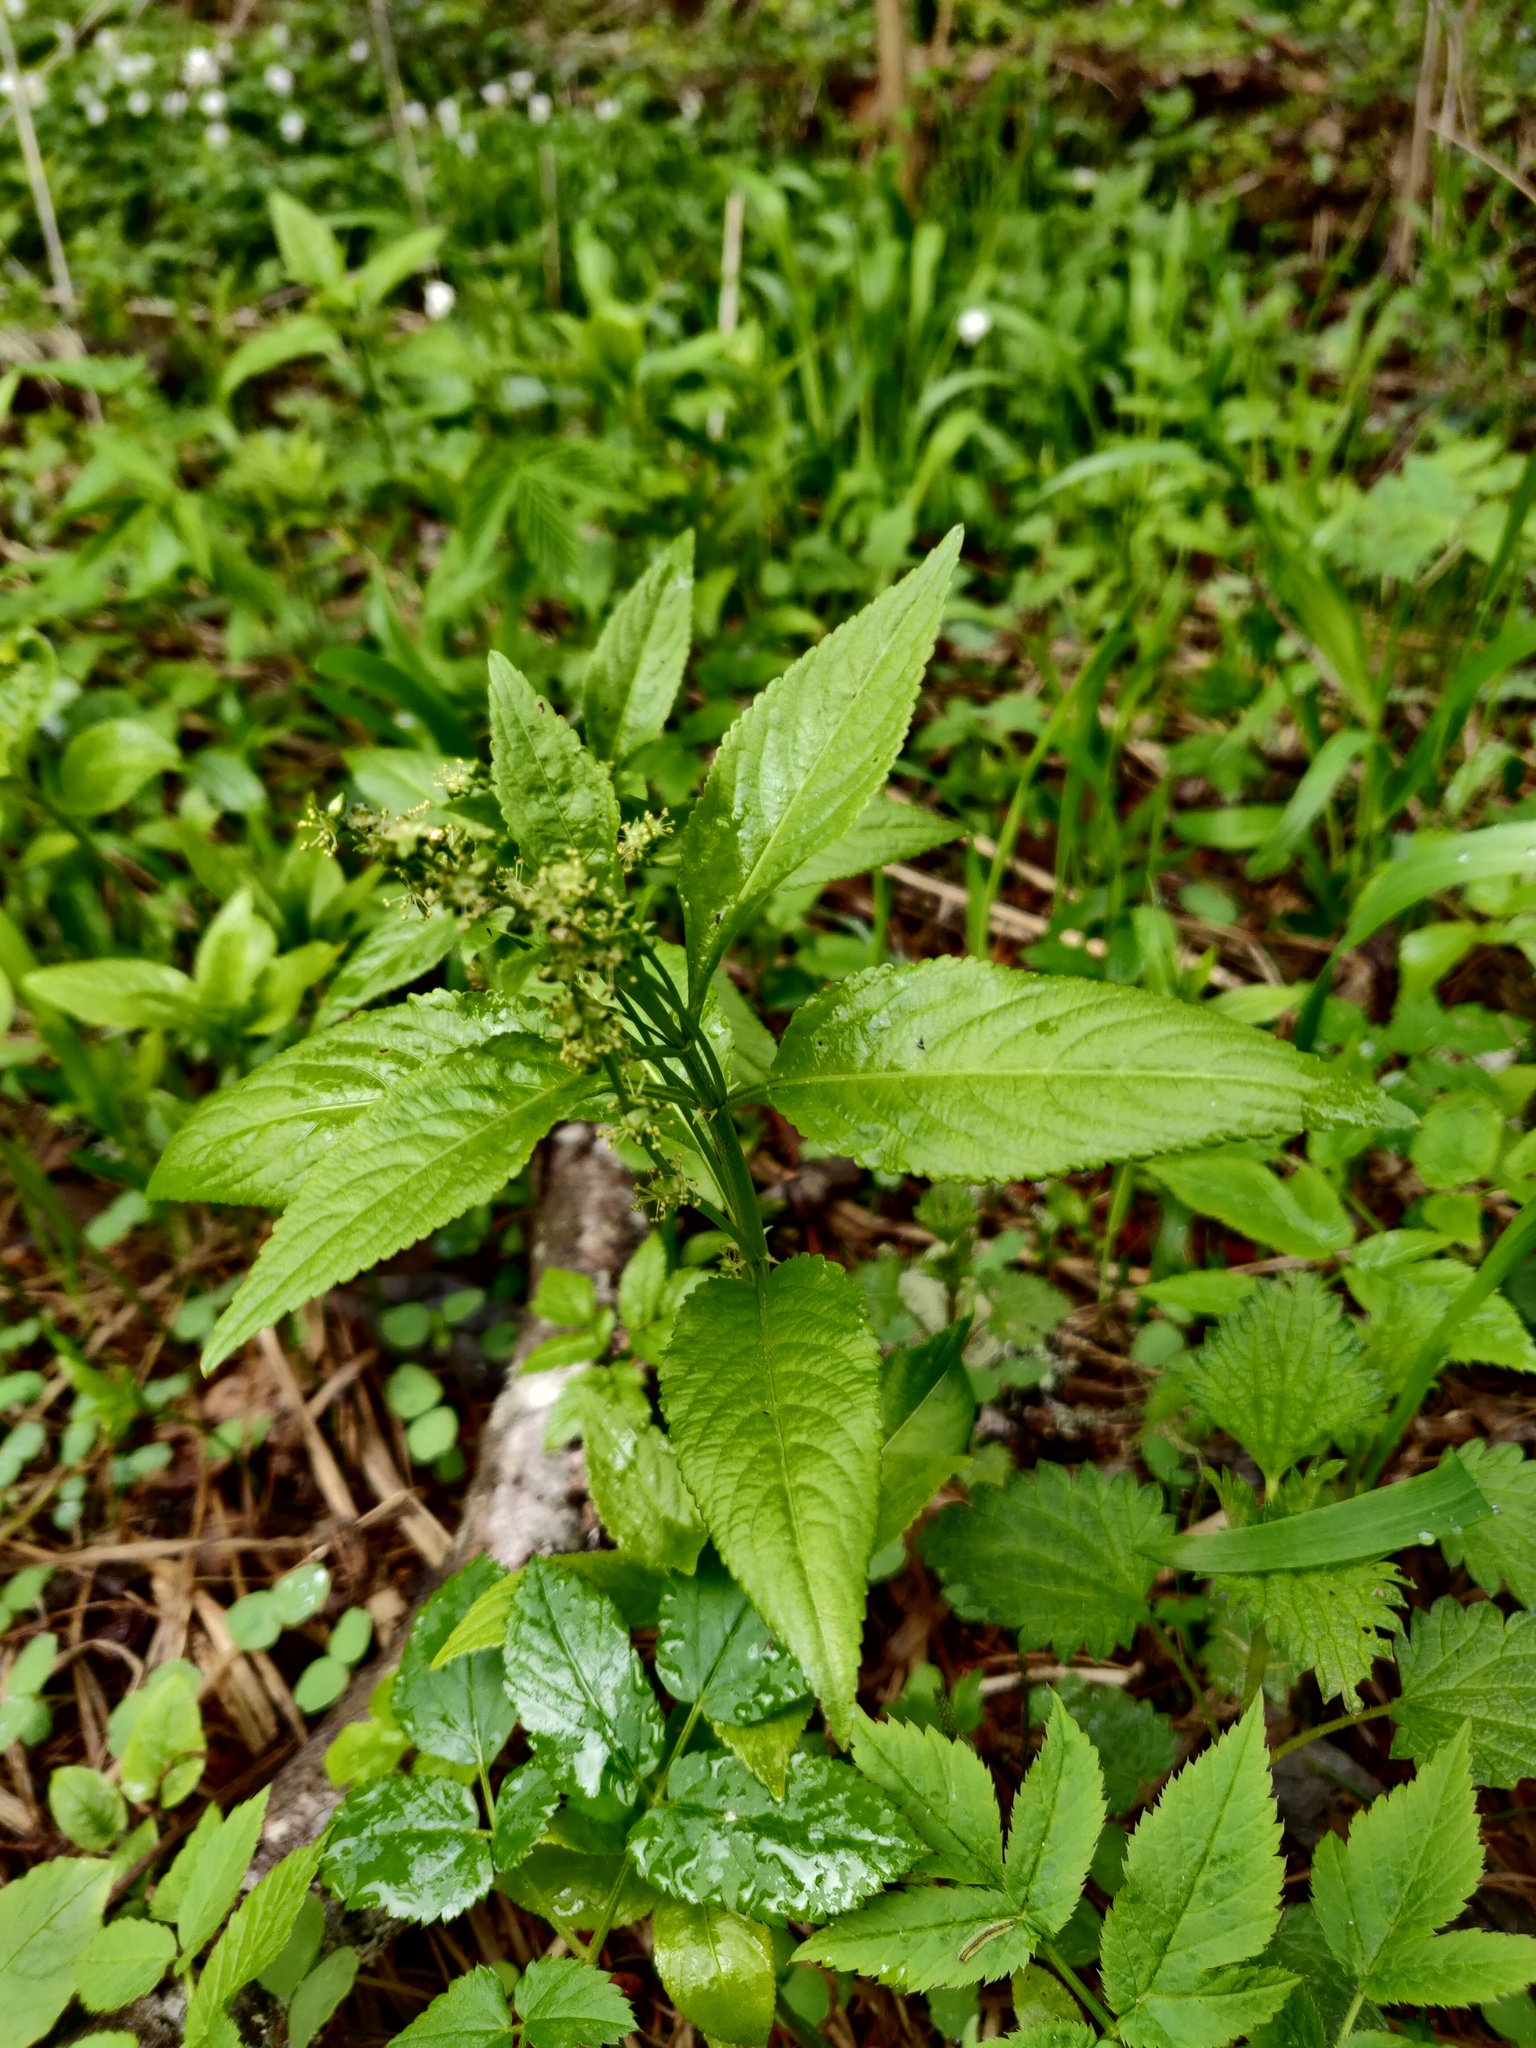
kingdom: Plantae
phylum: Tracheophyta
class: Magnoliopsida
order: Malpighiales
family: Euphorbiaceae
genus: Mercurialis
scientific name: Mercurialis perennis
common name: Dog mercury
